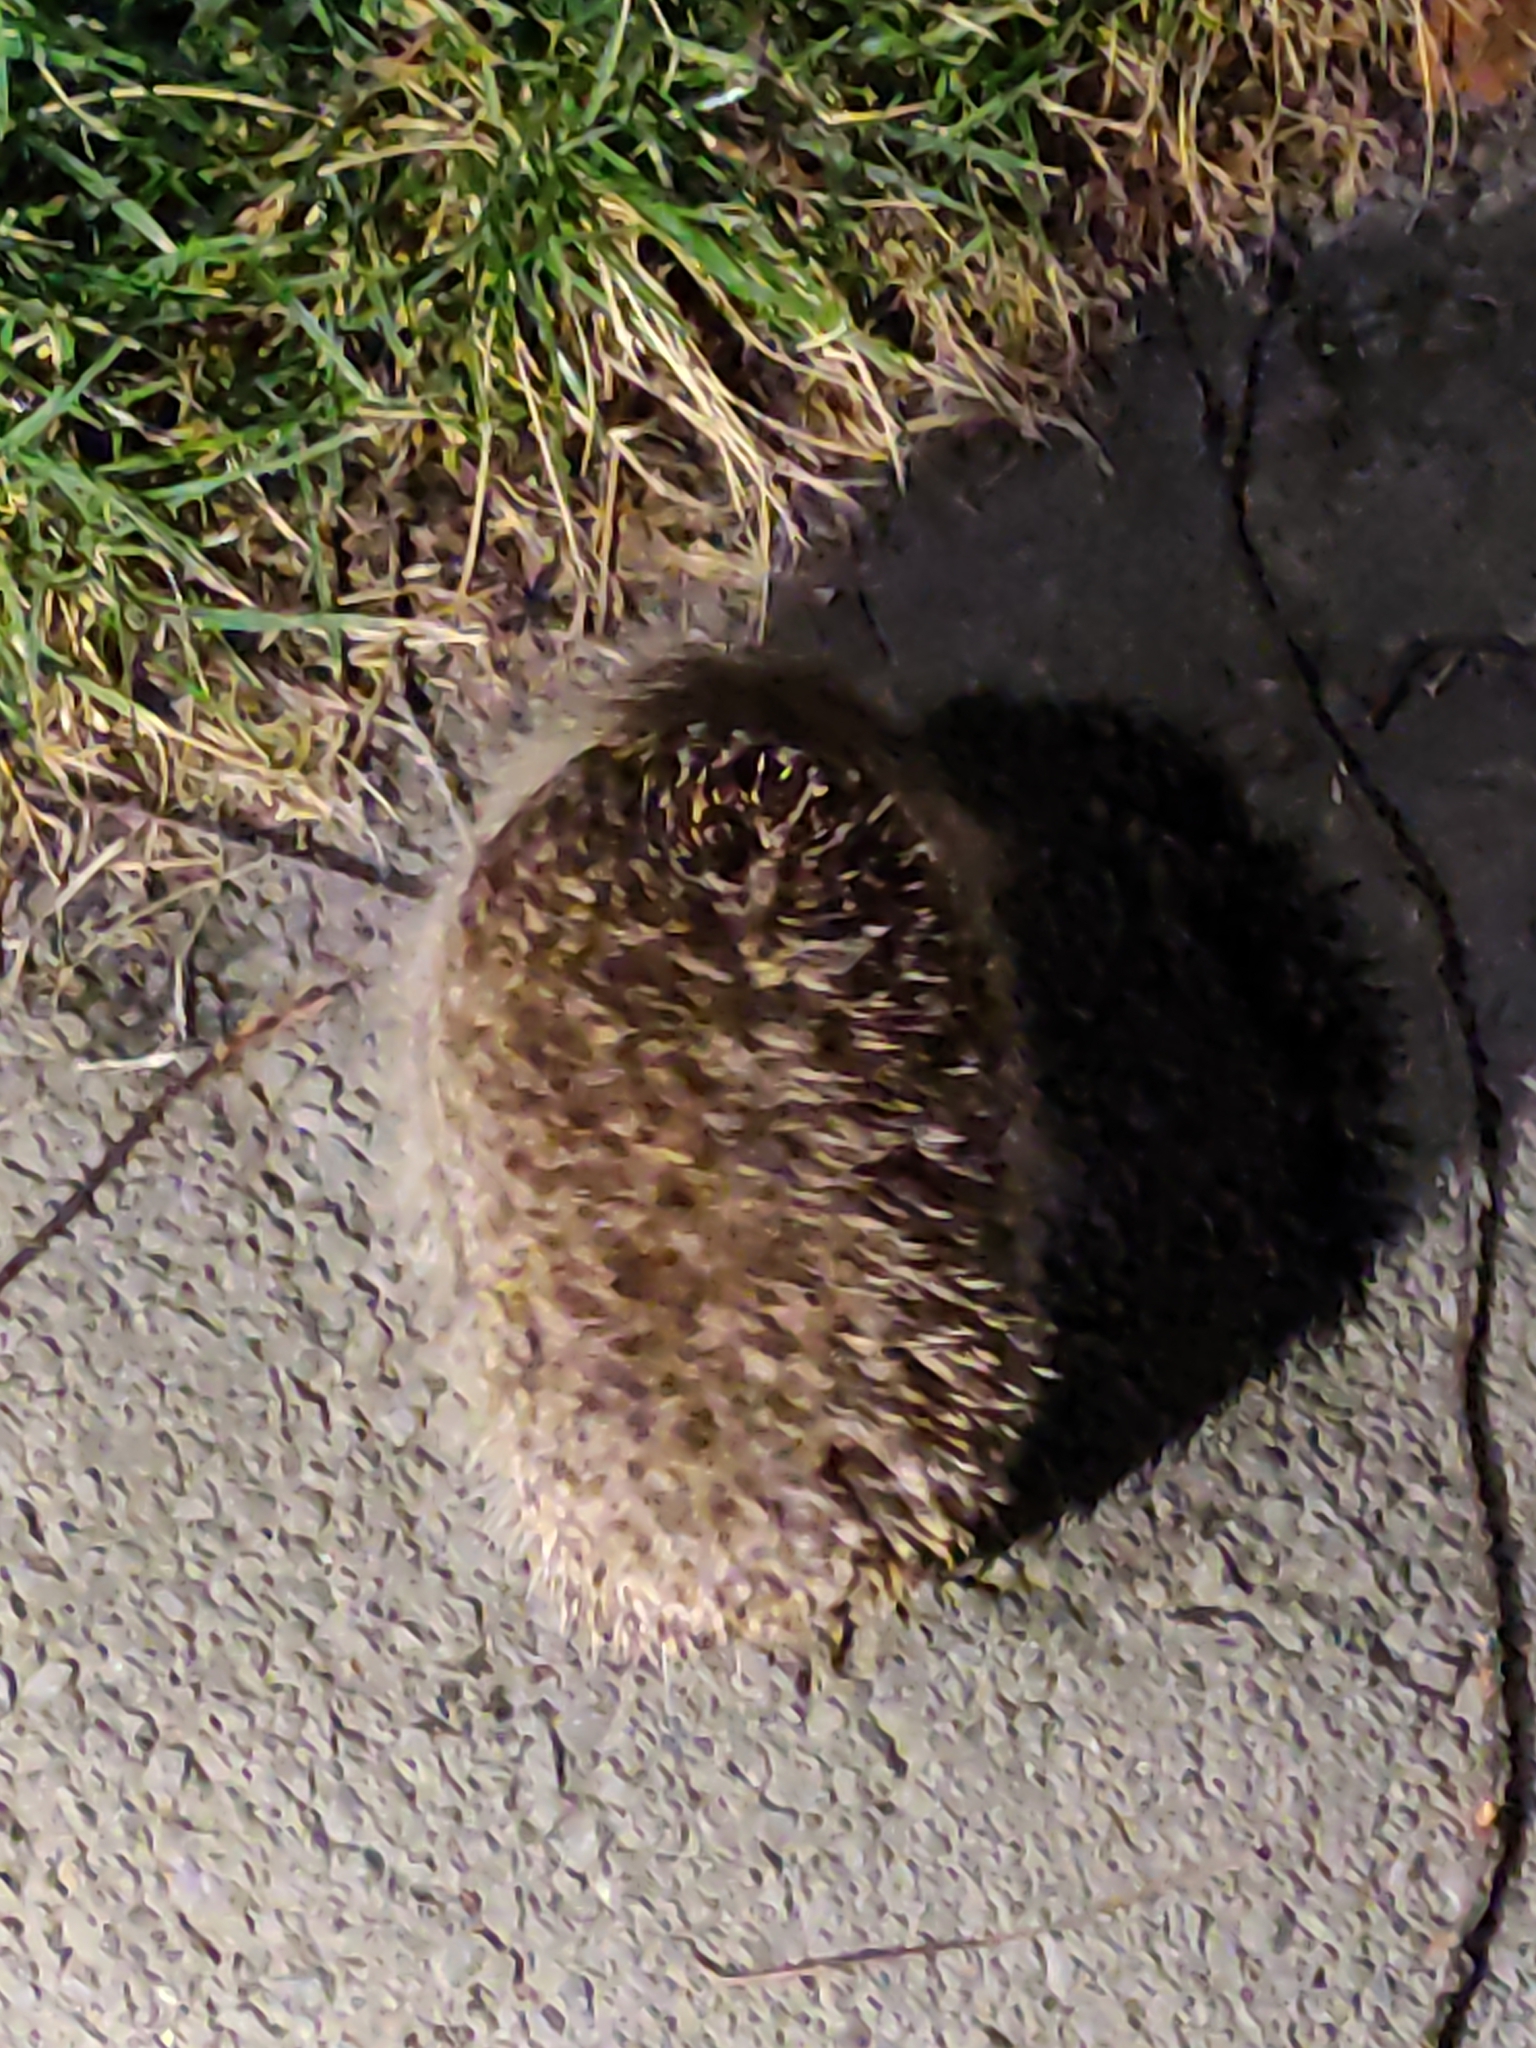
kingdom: Animalia
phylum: Chordata
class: Mammalia
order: Erinaceomorpha
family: Erinaceidae
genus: Erinaceus
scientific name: Erinaceus europaeus
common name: West european hedgehog
